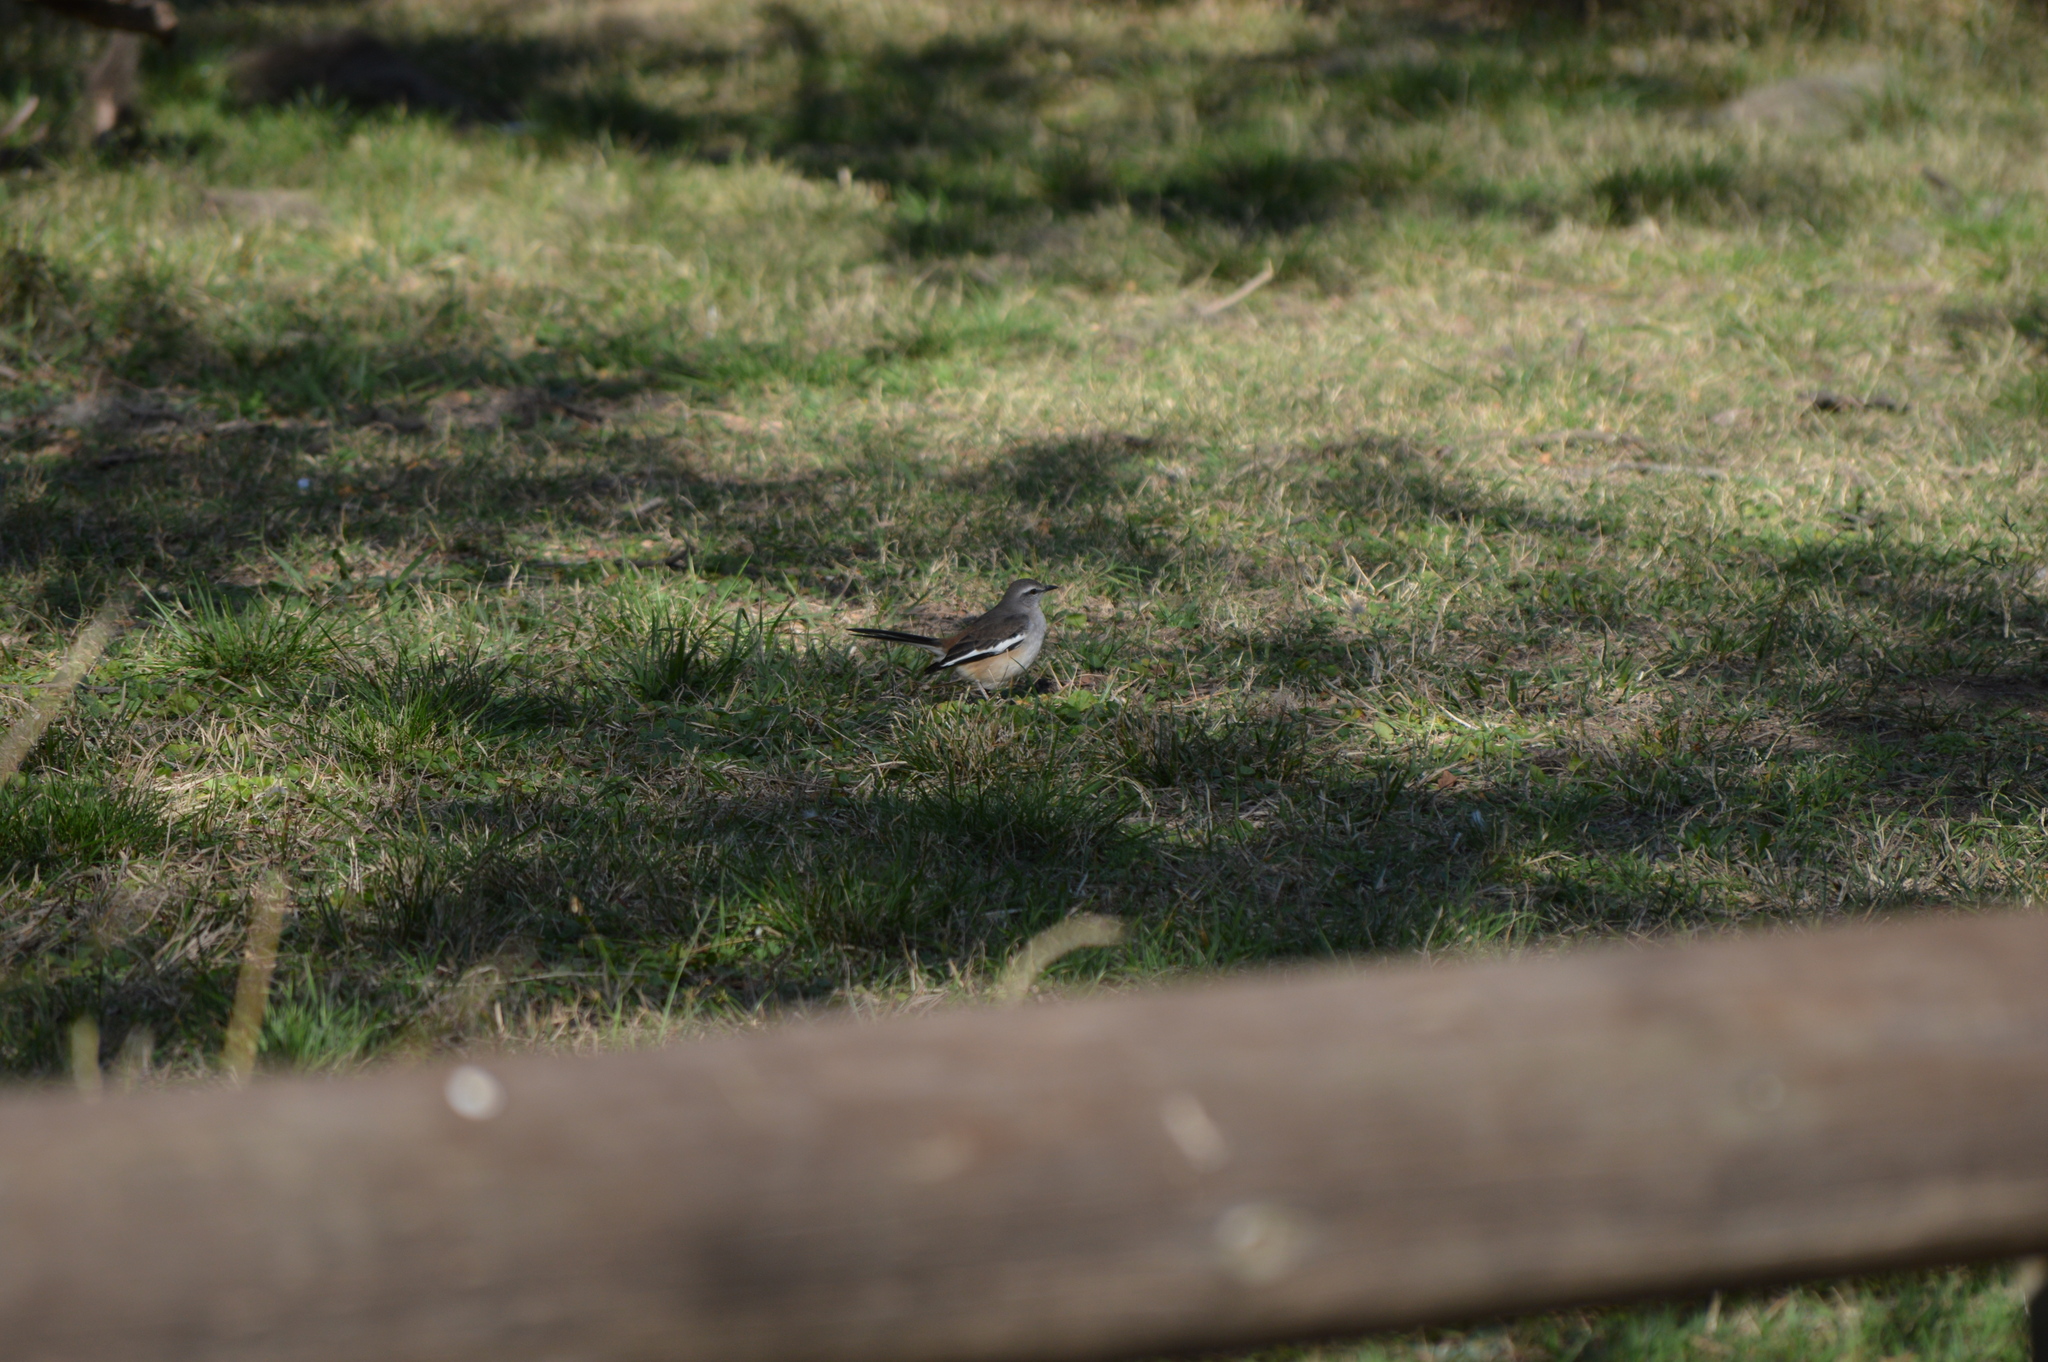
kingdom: Animalia
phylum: Chordata
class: Aves
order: Passeriformes
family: Mimidae
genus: Mimus
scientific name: Mimus triurus
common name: White-banded mockingbird
